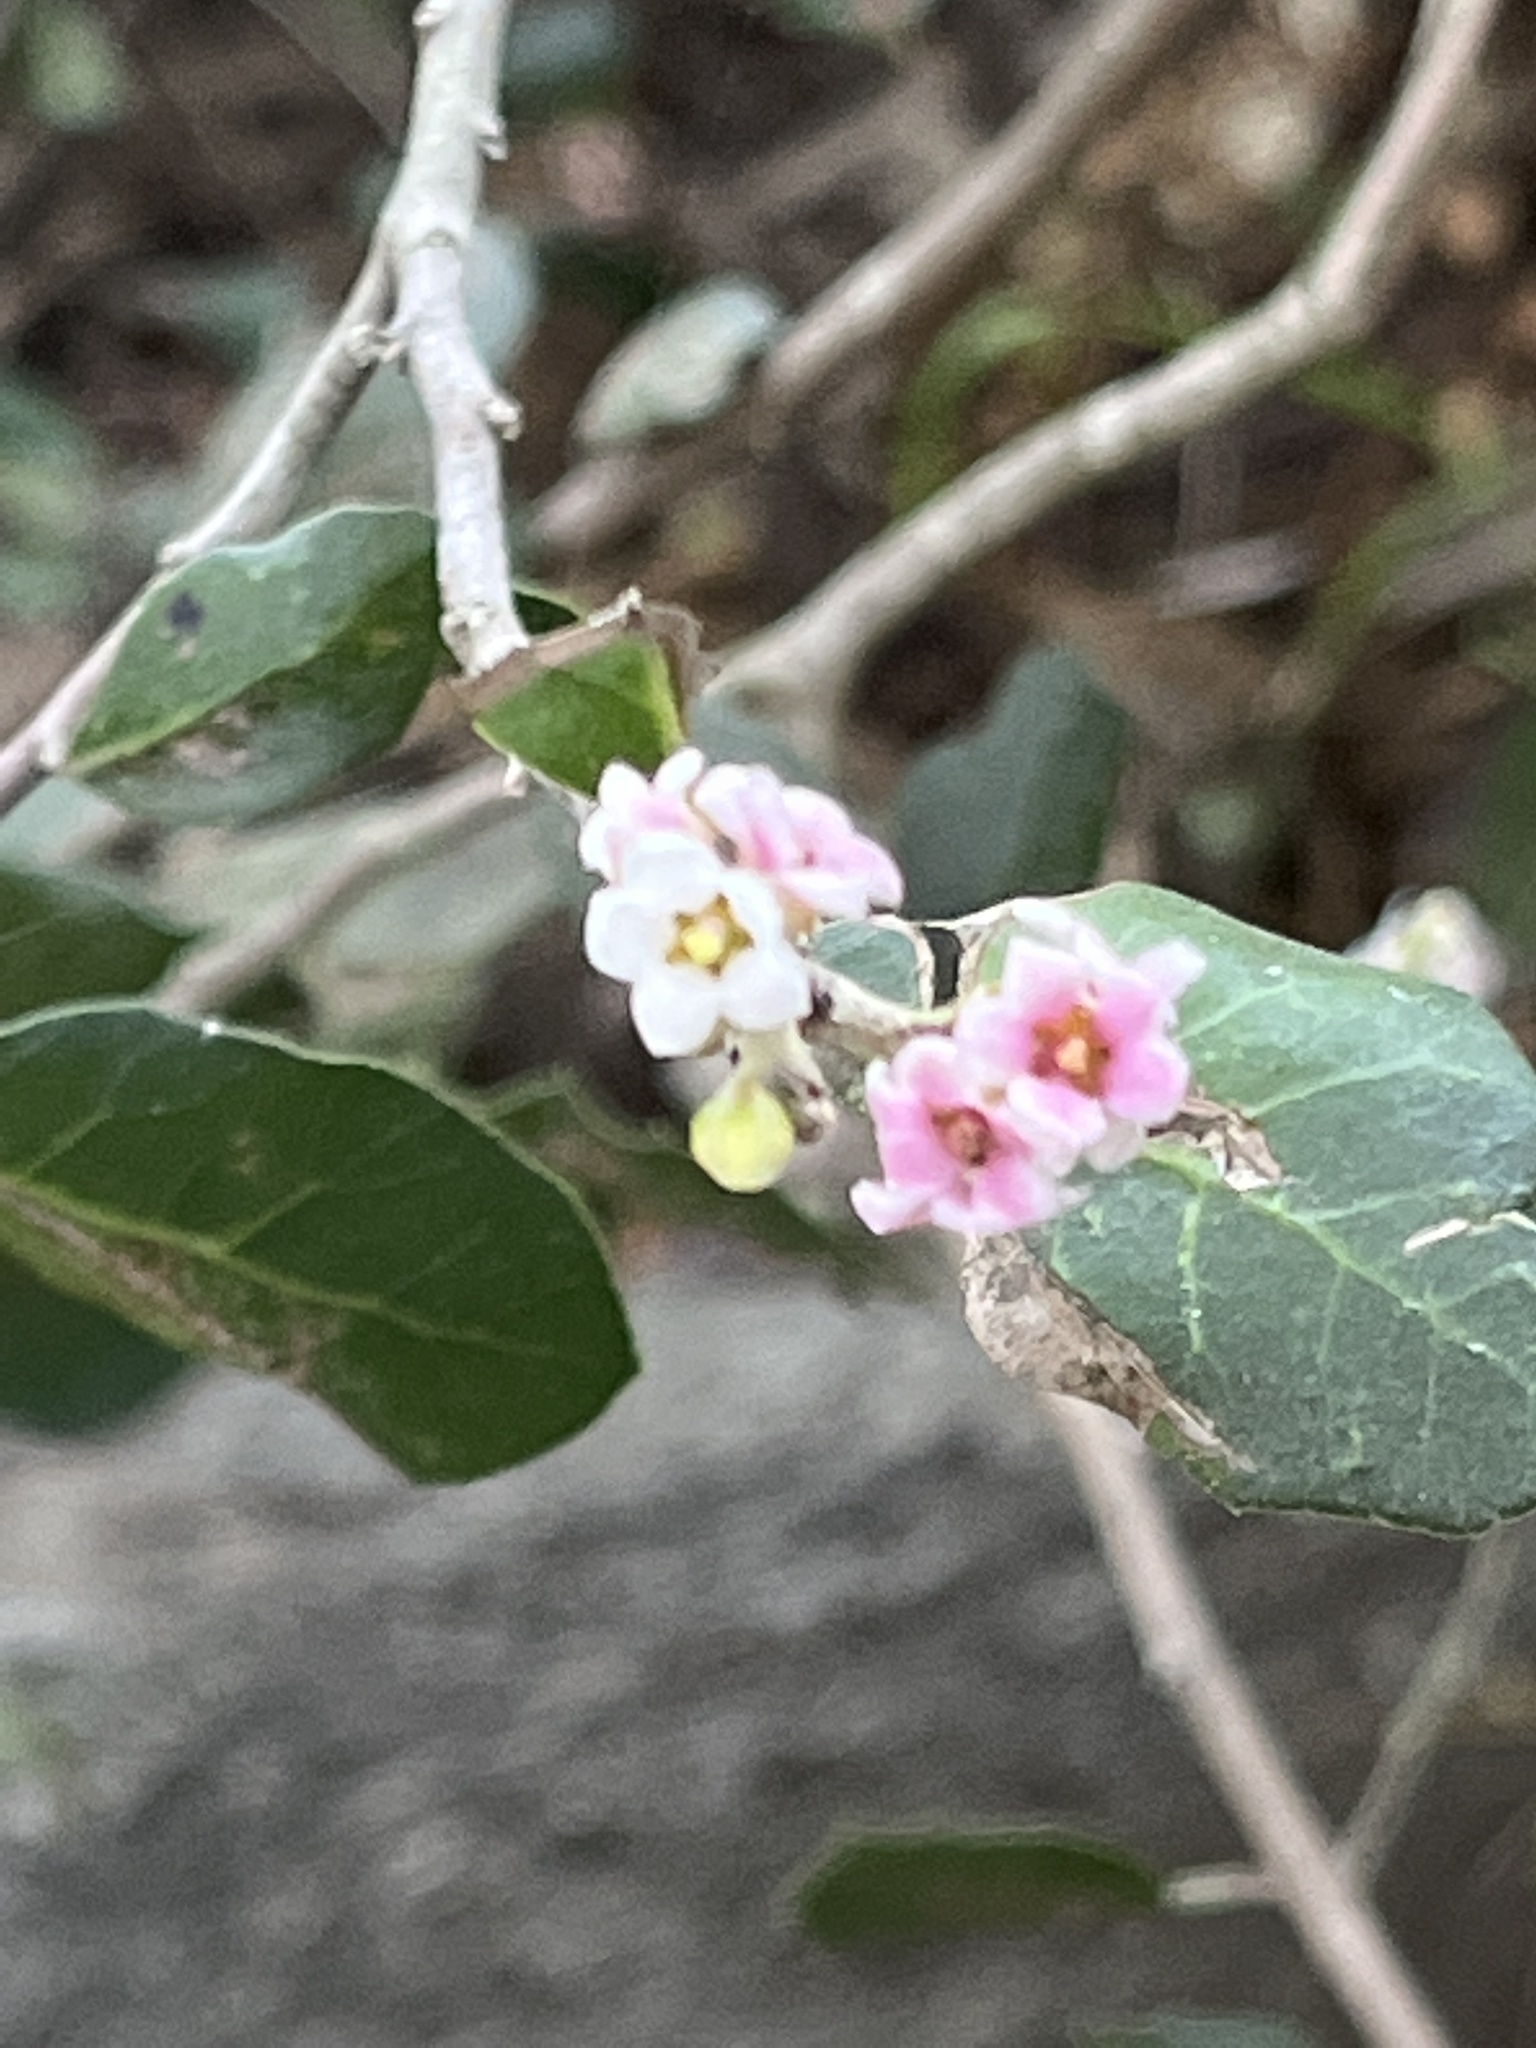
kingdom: Plantae
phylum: Tracheophyta
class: Magnoliopsida
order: Sapindales
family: Anacardiaceae
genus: Rhus
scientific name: Rhus integrifolia
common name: Lemonade sumac
